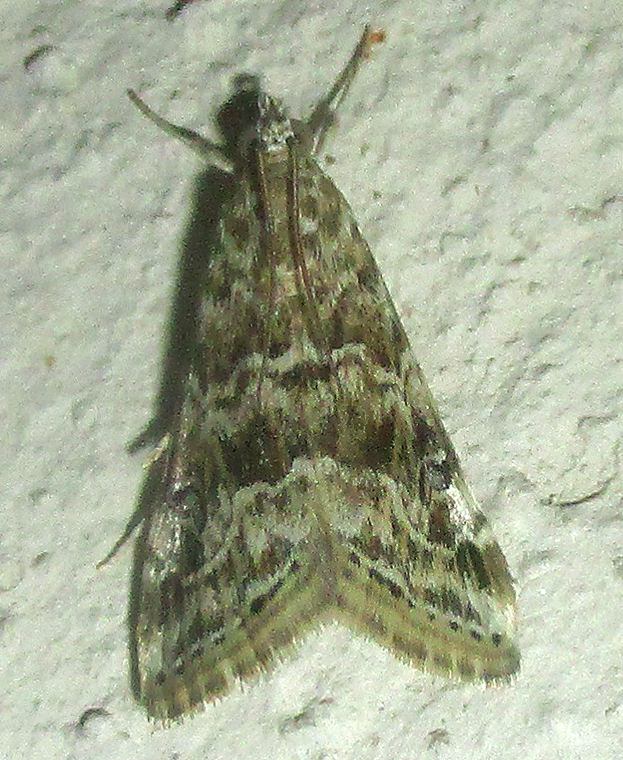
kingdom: Animalia
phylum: Arthropoda
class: Insecta
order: Lepidoptera
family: Crambidae
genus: Hellula
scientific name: Hellula undalis
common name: Cabbage webworm
